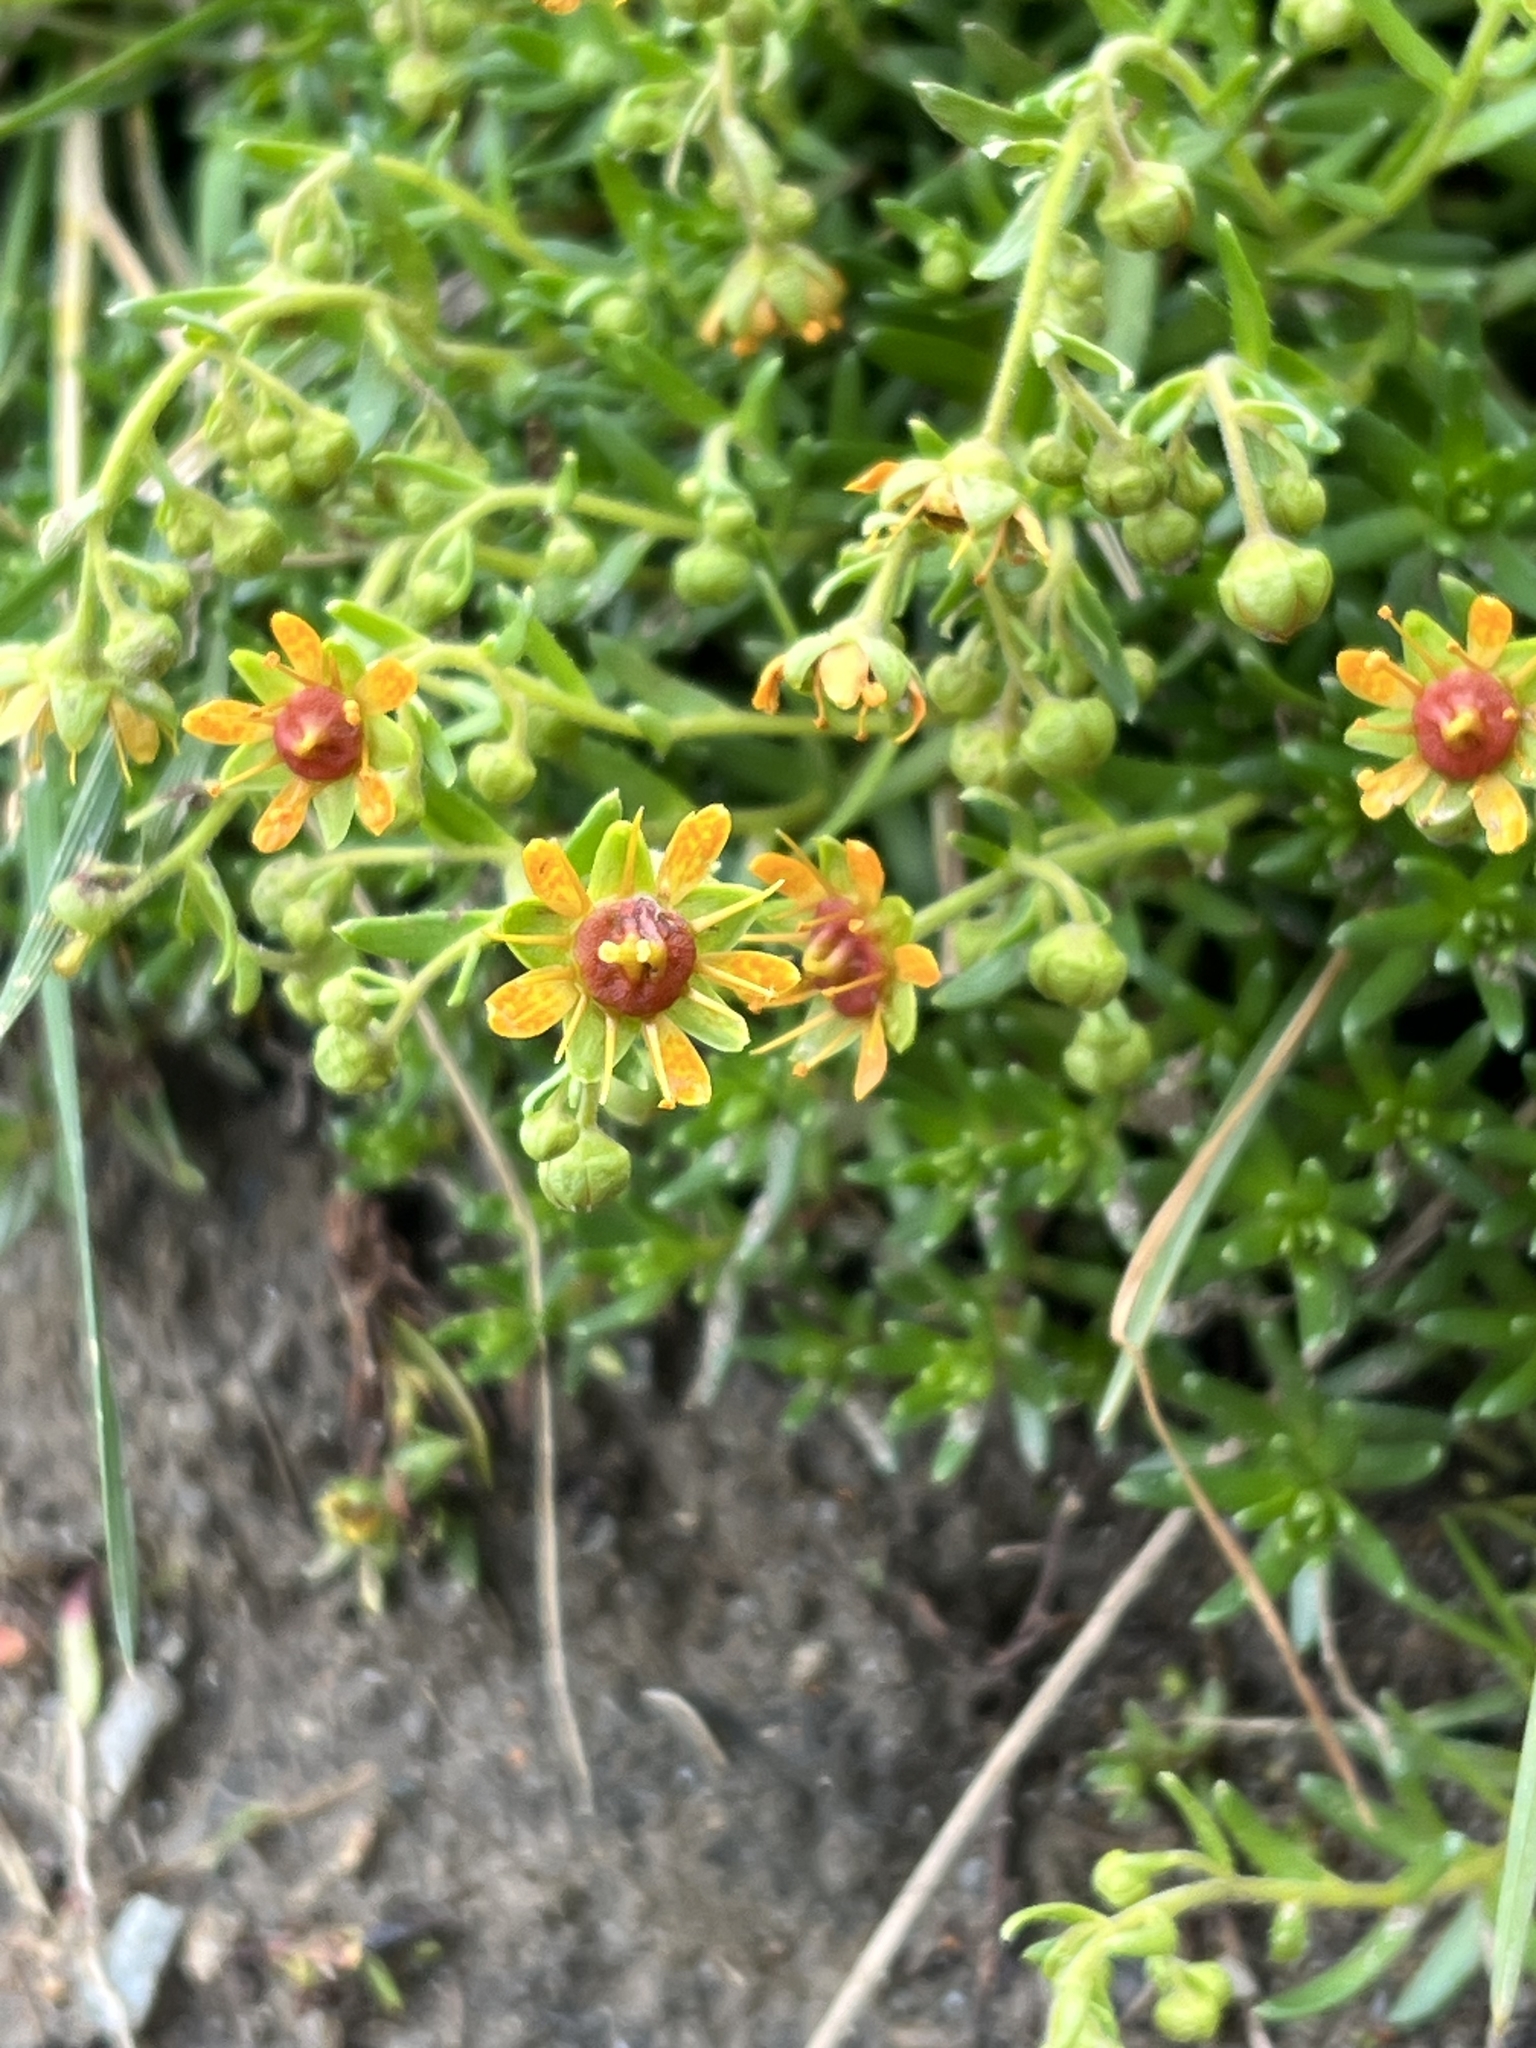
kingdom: Plantae
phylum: Tracheophyta
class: Magnoliopsida
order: Saxifragales
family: Saxifragaceae
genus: Saxifraga
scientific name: Saxifraga aizoides
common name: Yellow mountain saxifrage
